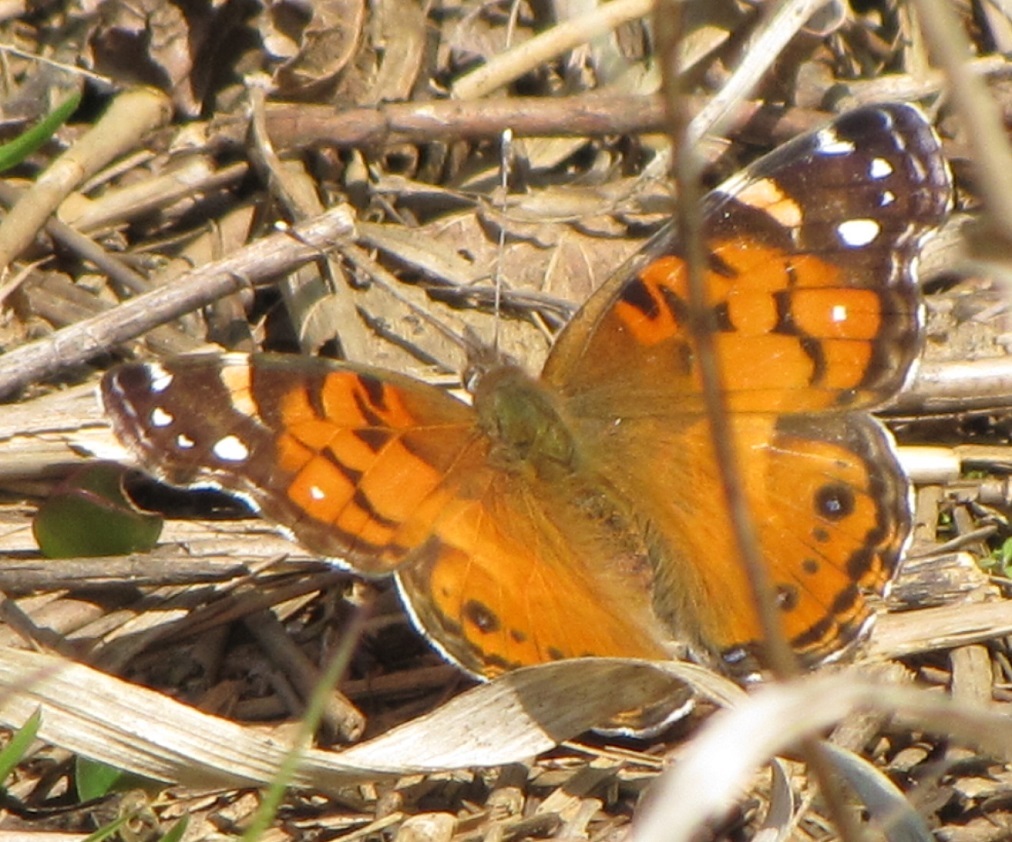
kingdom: Animalia
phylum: Arthropoda
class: Insecta
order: Lepidoptera
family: Nymphalidae
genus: Vanessa
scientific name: Vanessa virginiensis
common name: American lady
